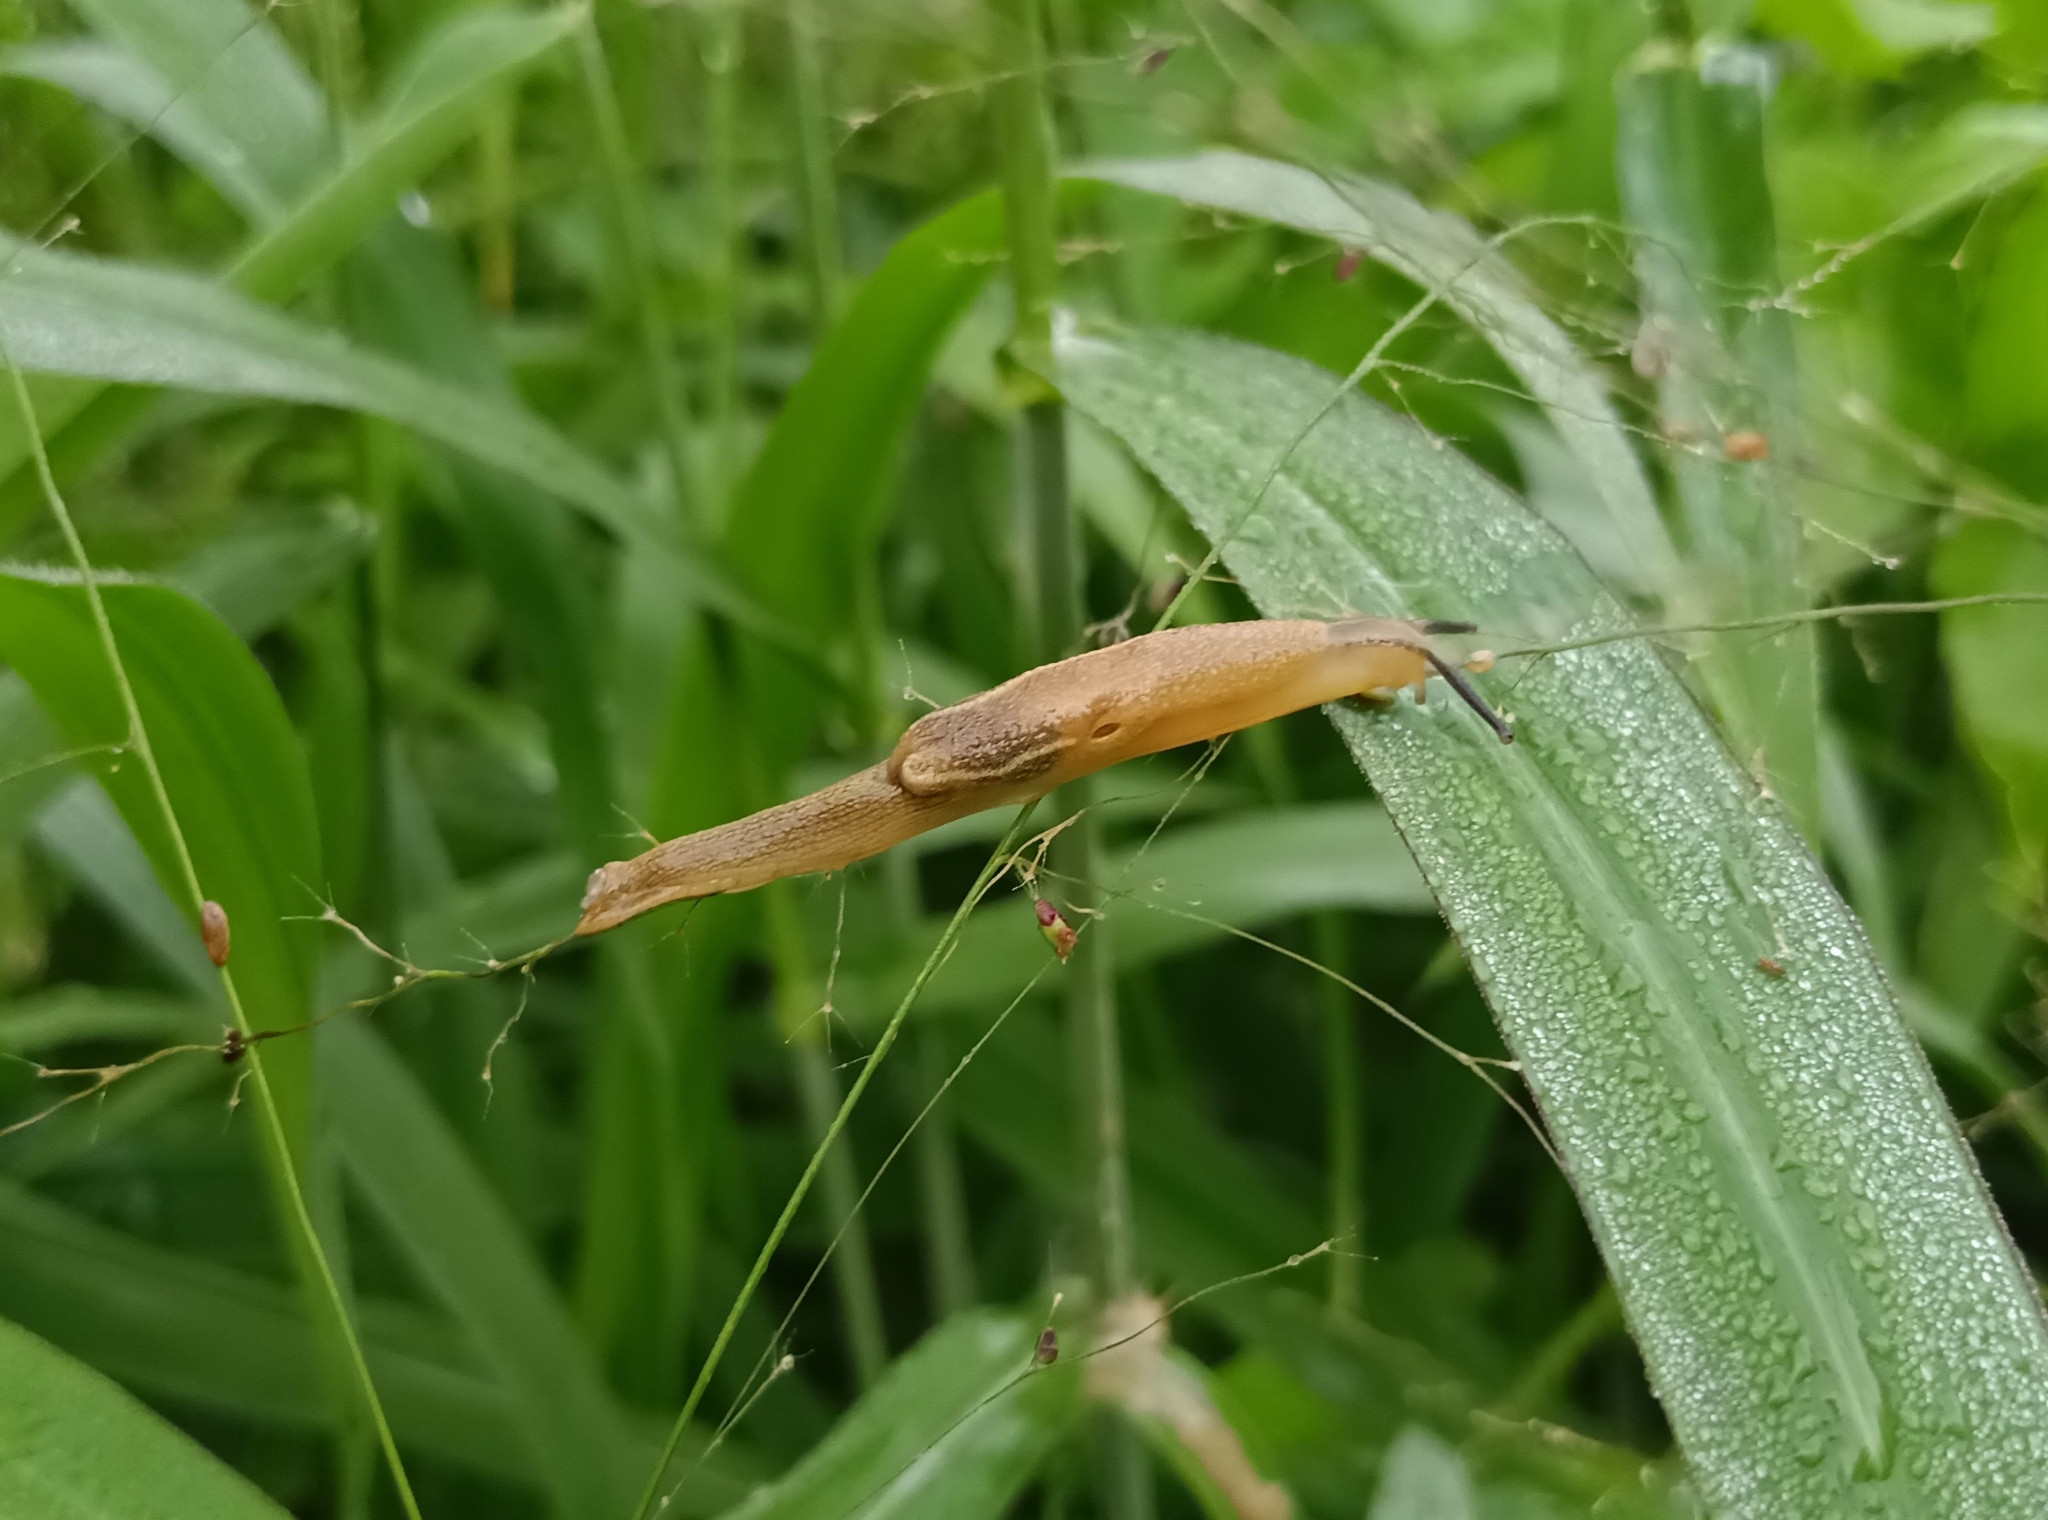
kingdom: Animalia
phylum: Mollusca
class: Gastropoda
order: Stylommatophora
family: Ariophantidae
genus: Mariaella
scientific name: Mariaella dussumieri
